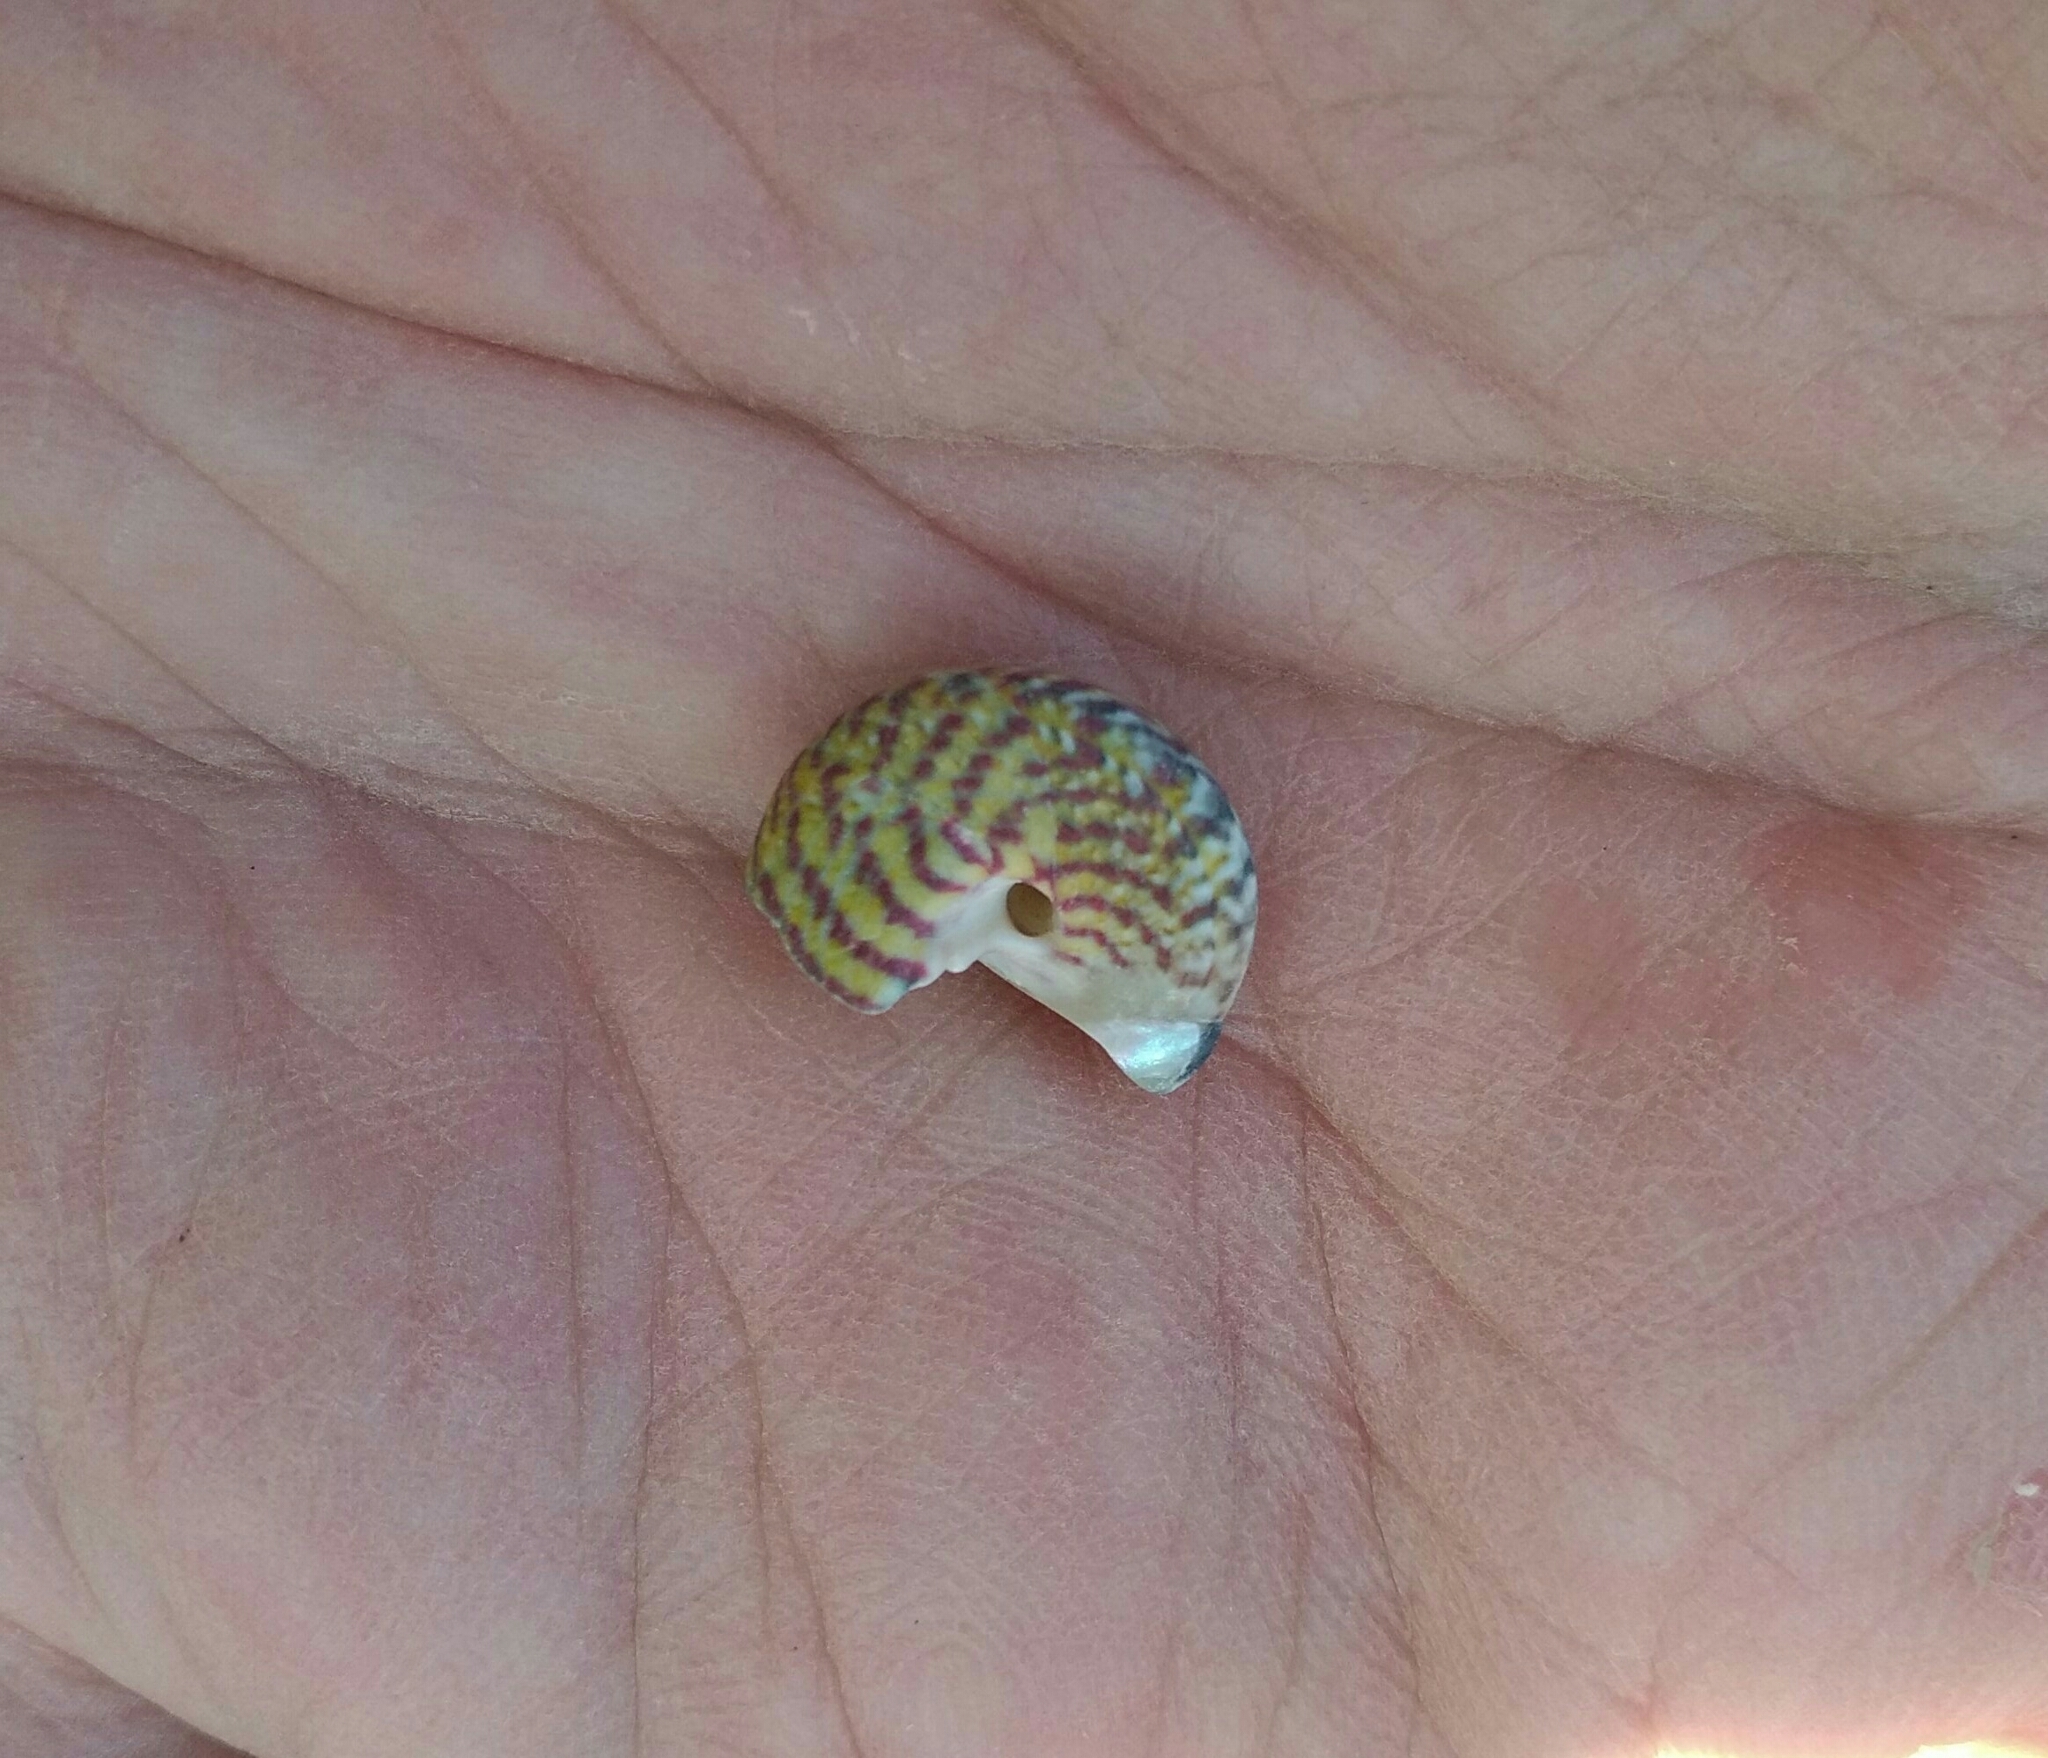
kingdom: Animalia
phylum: Mollusca
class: Gastropoda
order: Trochida
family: Trochidae
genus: Steromphala
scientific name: Steromphala umbilicalis
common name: Flat top shell
